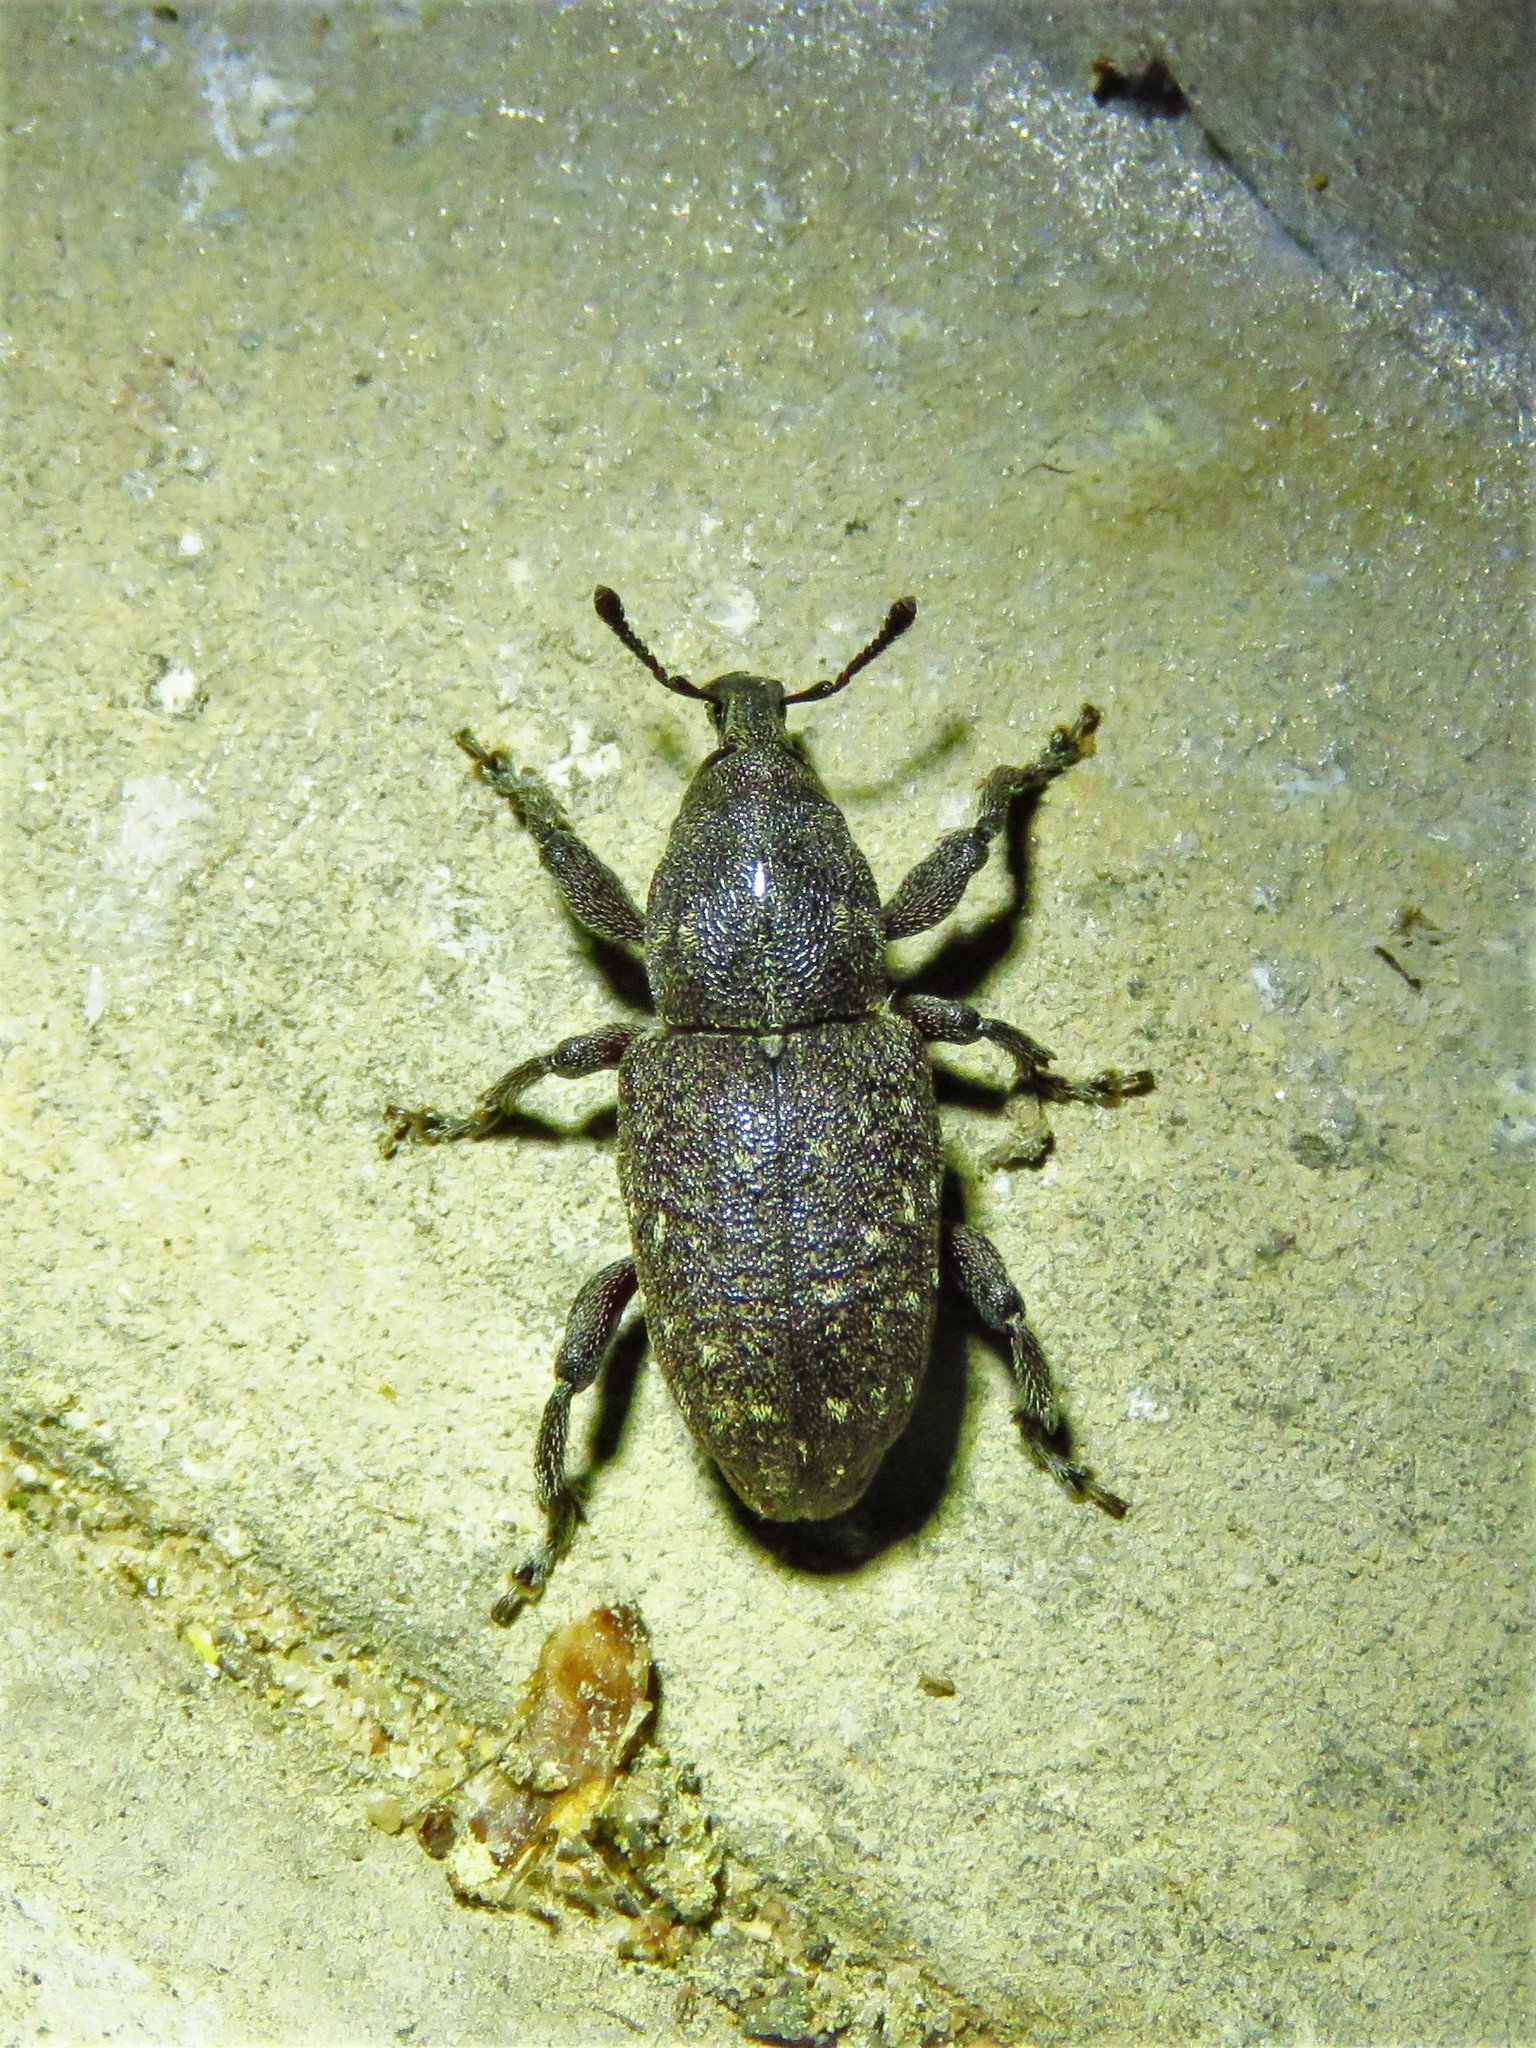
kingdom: Animalia
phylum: Arthropoda
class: Insecta
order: Coleoptera
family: Curculionidae
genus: Pachylobius
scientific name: Pachylobius picivorus
